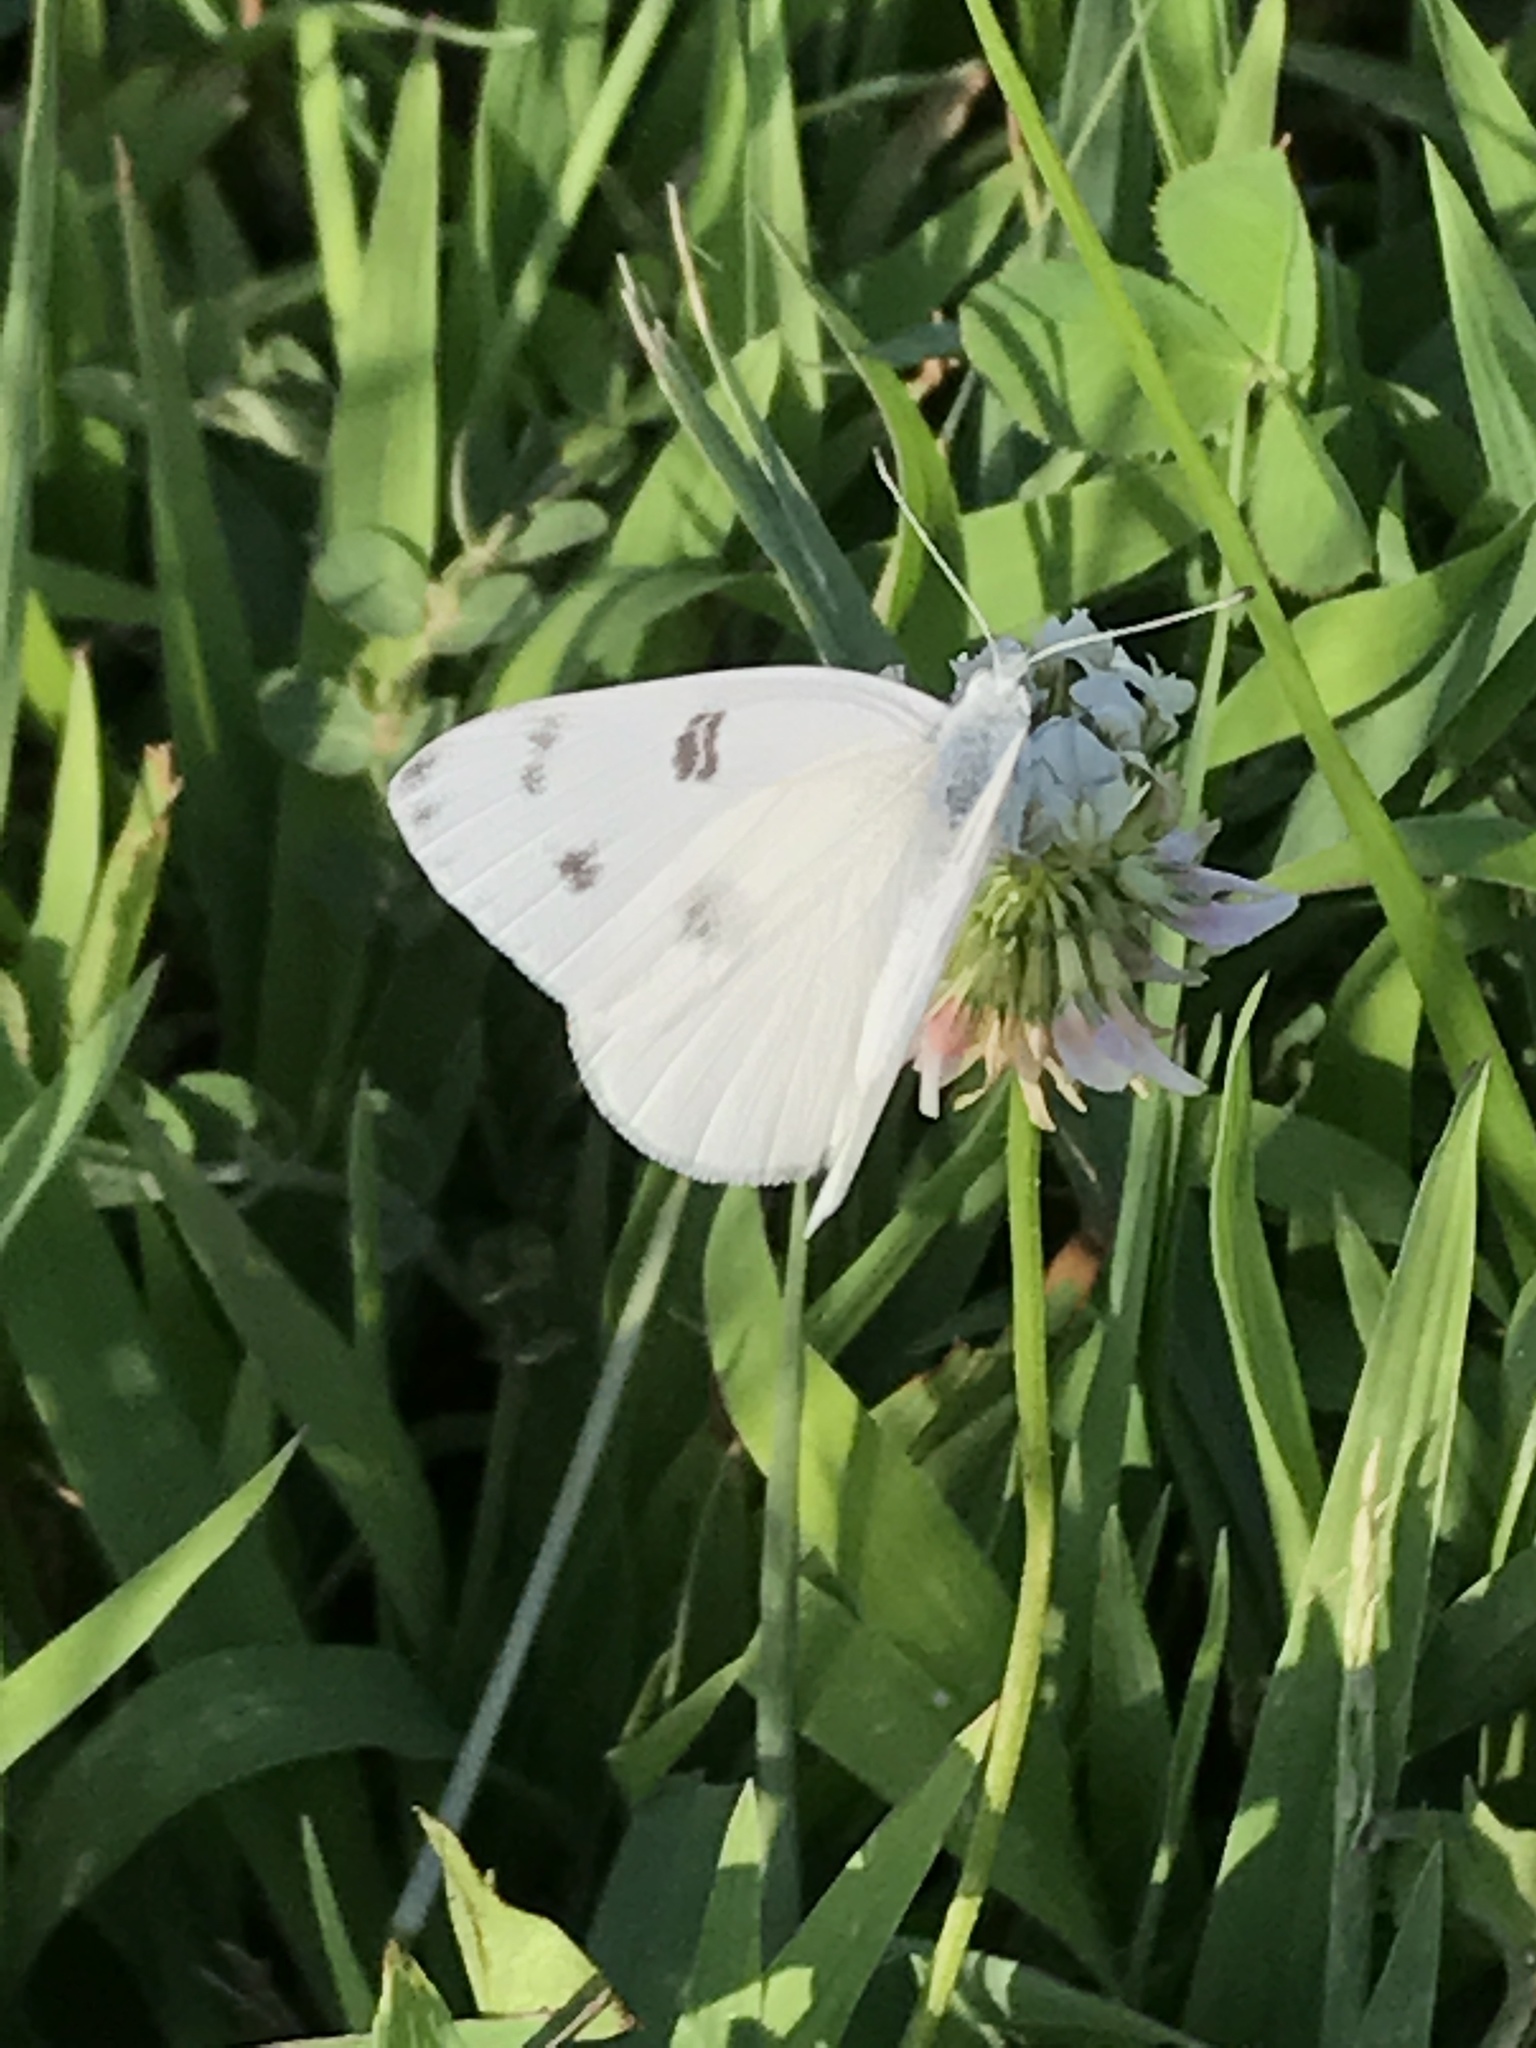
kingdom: Animalia
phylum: Arthropoda
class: Insecta
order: Lepidoptera
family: Pieridae
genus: Pontia
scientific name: Pontia protodice
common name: Checkered white
